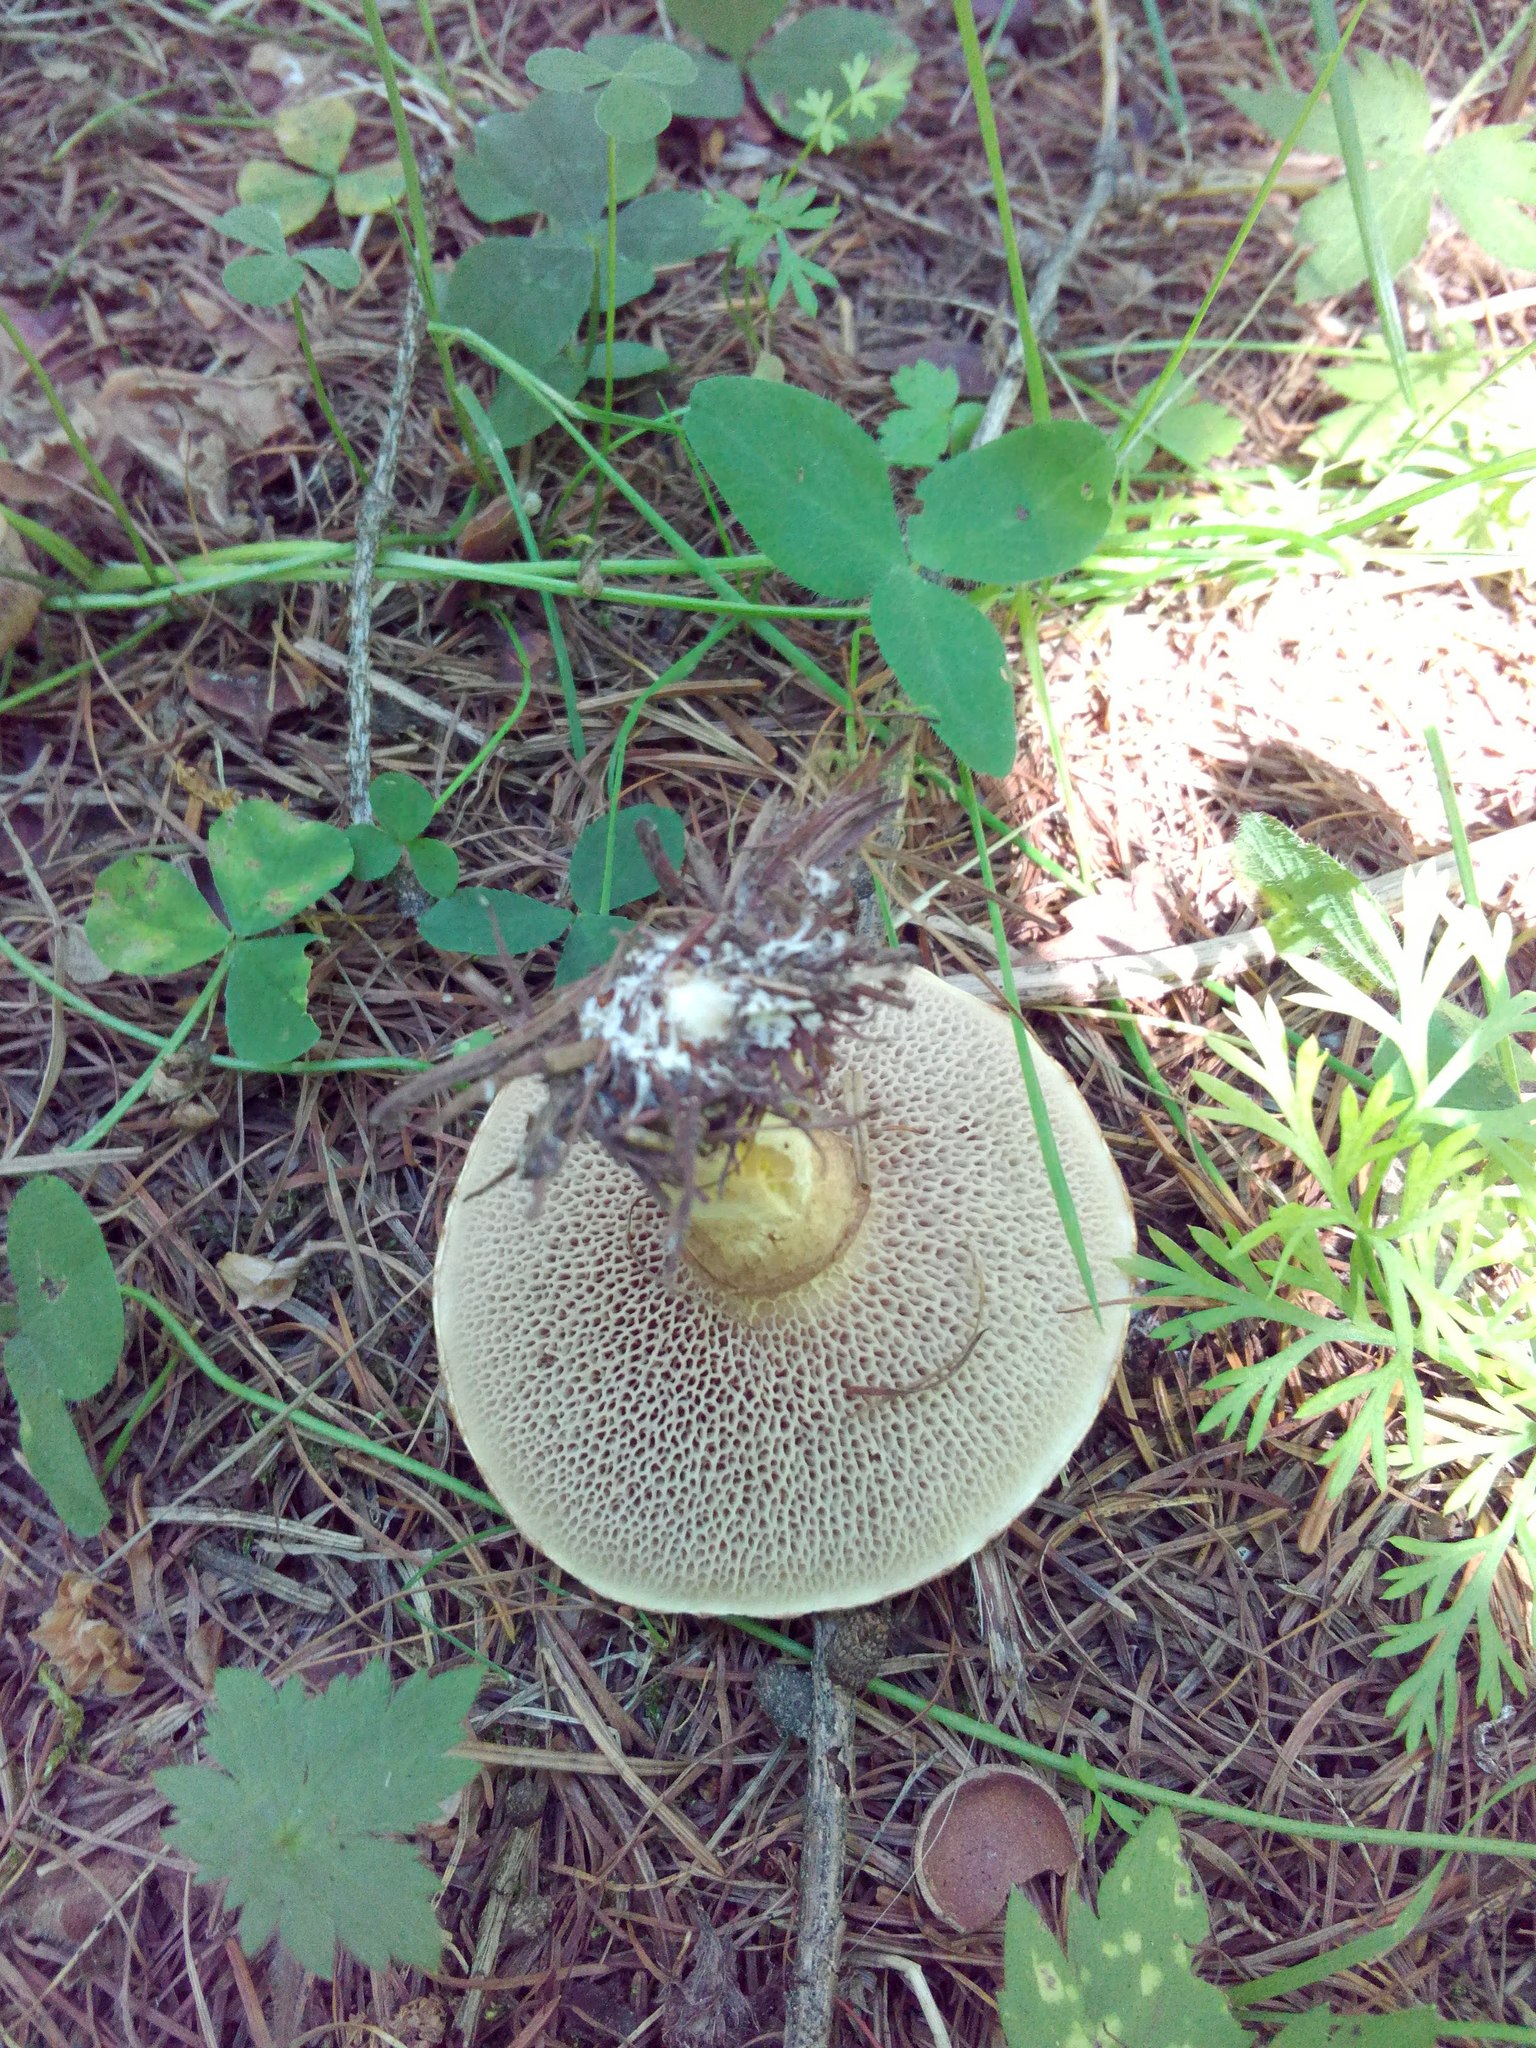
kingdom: Fungi
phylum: Basidiomycota
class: Agaricomycetes
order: Boletales
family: Suillaceae
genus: Suillus
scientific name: Suillus viscidus
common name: Sticky bolete
